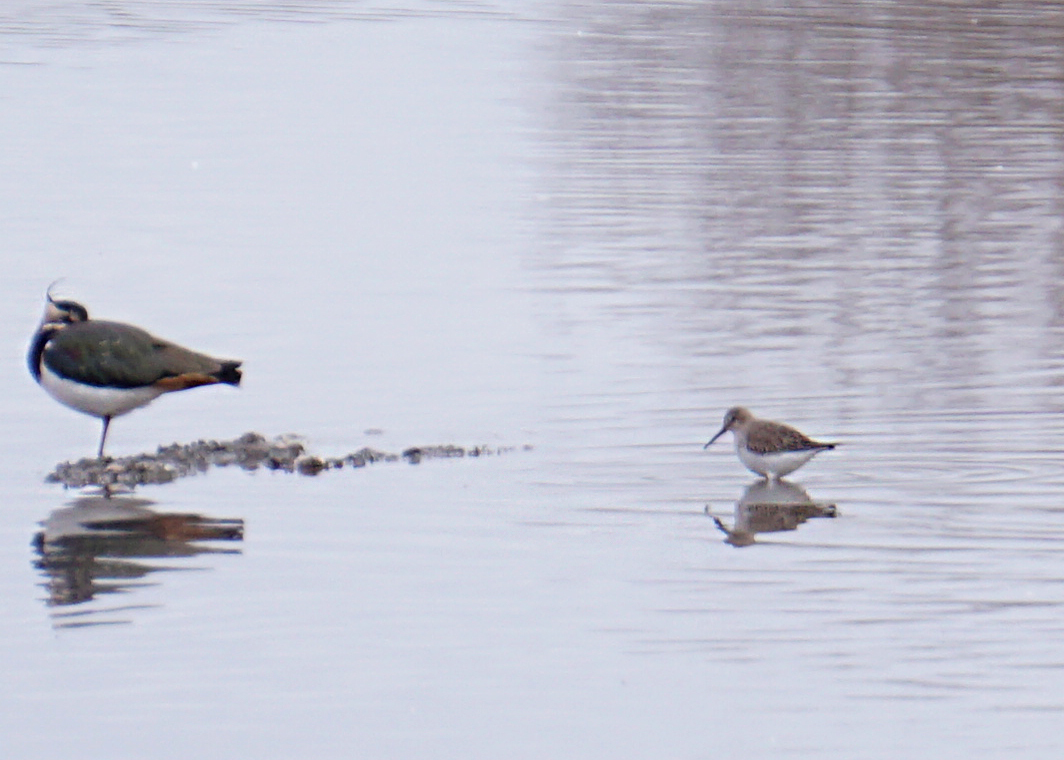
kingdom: Animalia
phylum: Chordata
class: Aves
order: Charadriiformes
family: Scolopacidae
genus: Calidris
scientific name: Calidris alpina
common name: Dunlin
